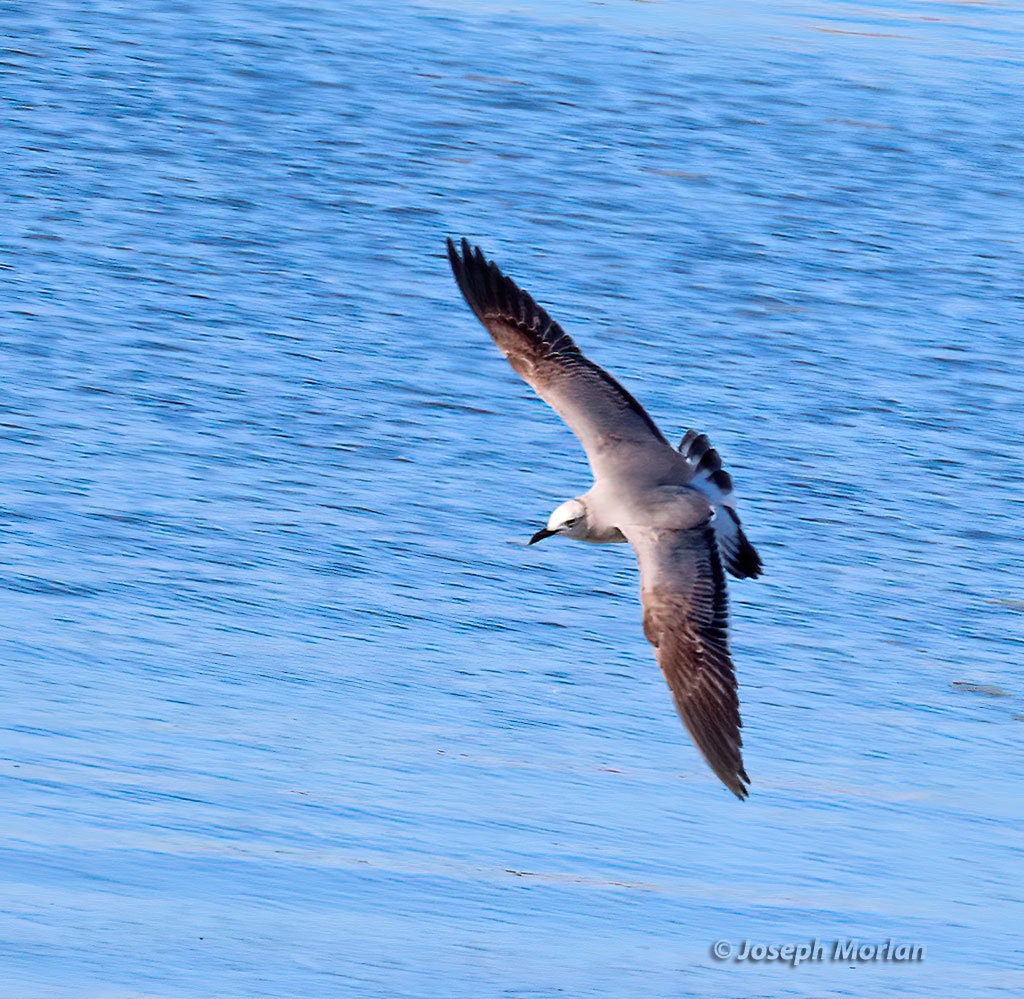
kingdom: Animalia
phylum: Chordata
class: Aves
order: Charadriiformes
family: Laridae
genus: Leucophaeus
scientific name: Leucophaeus atricilla
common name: Laughing gull
